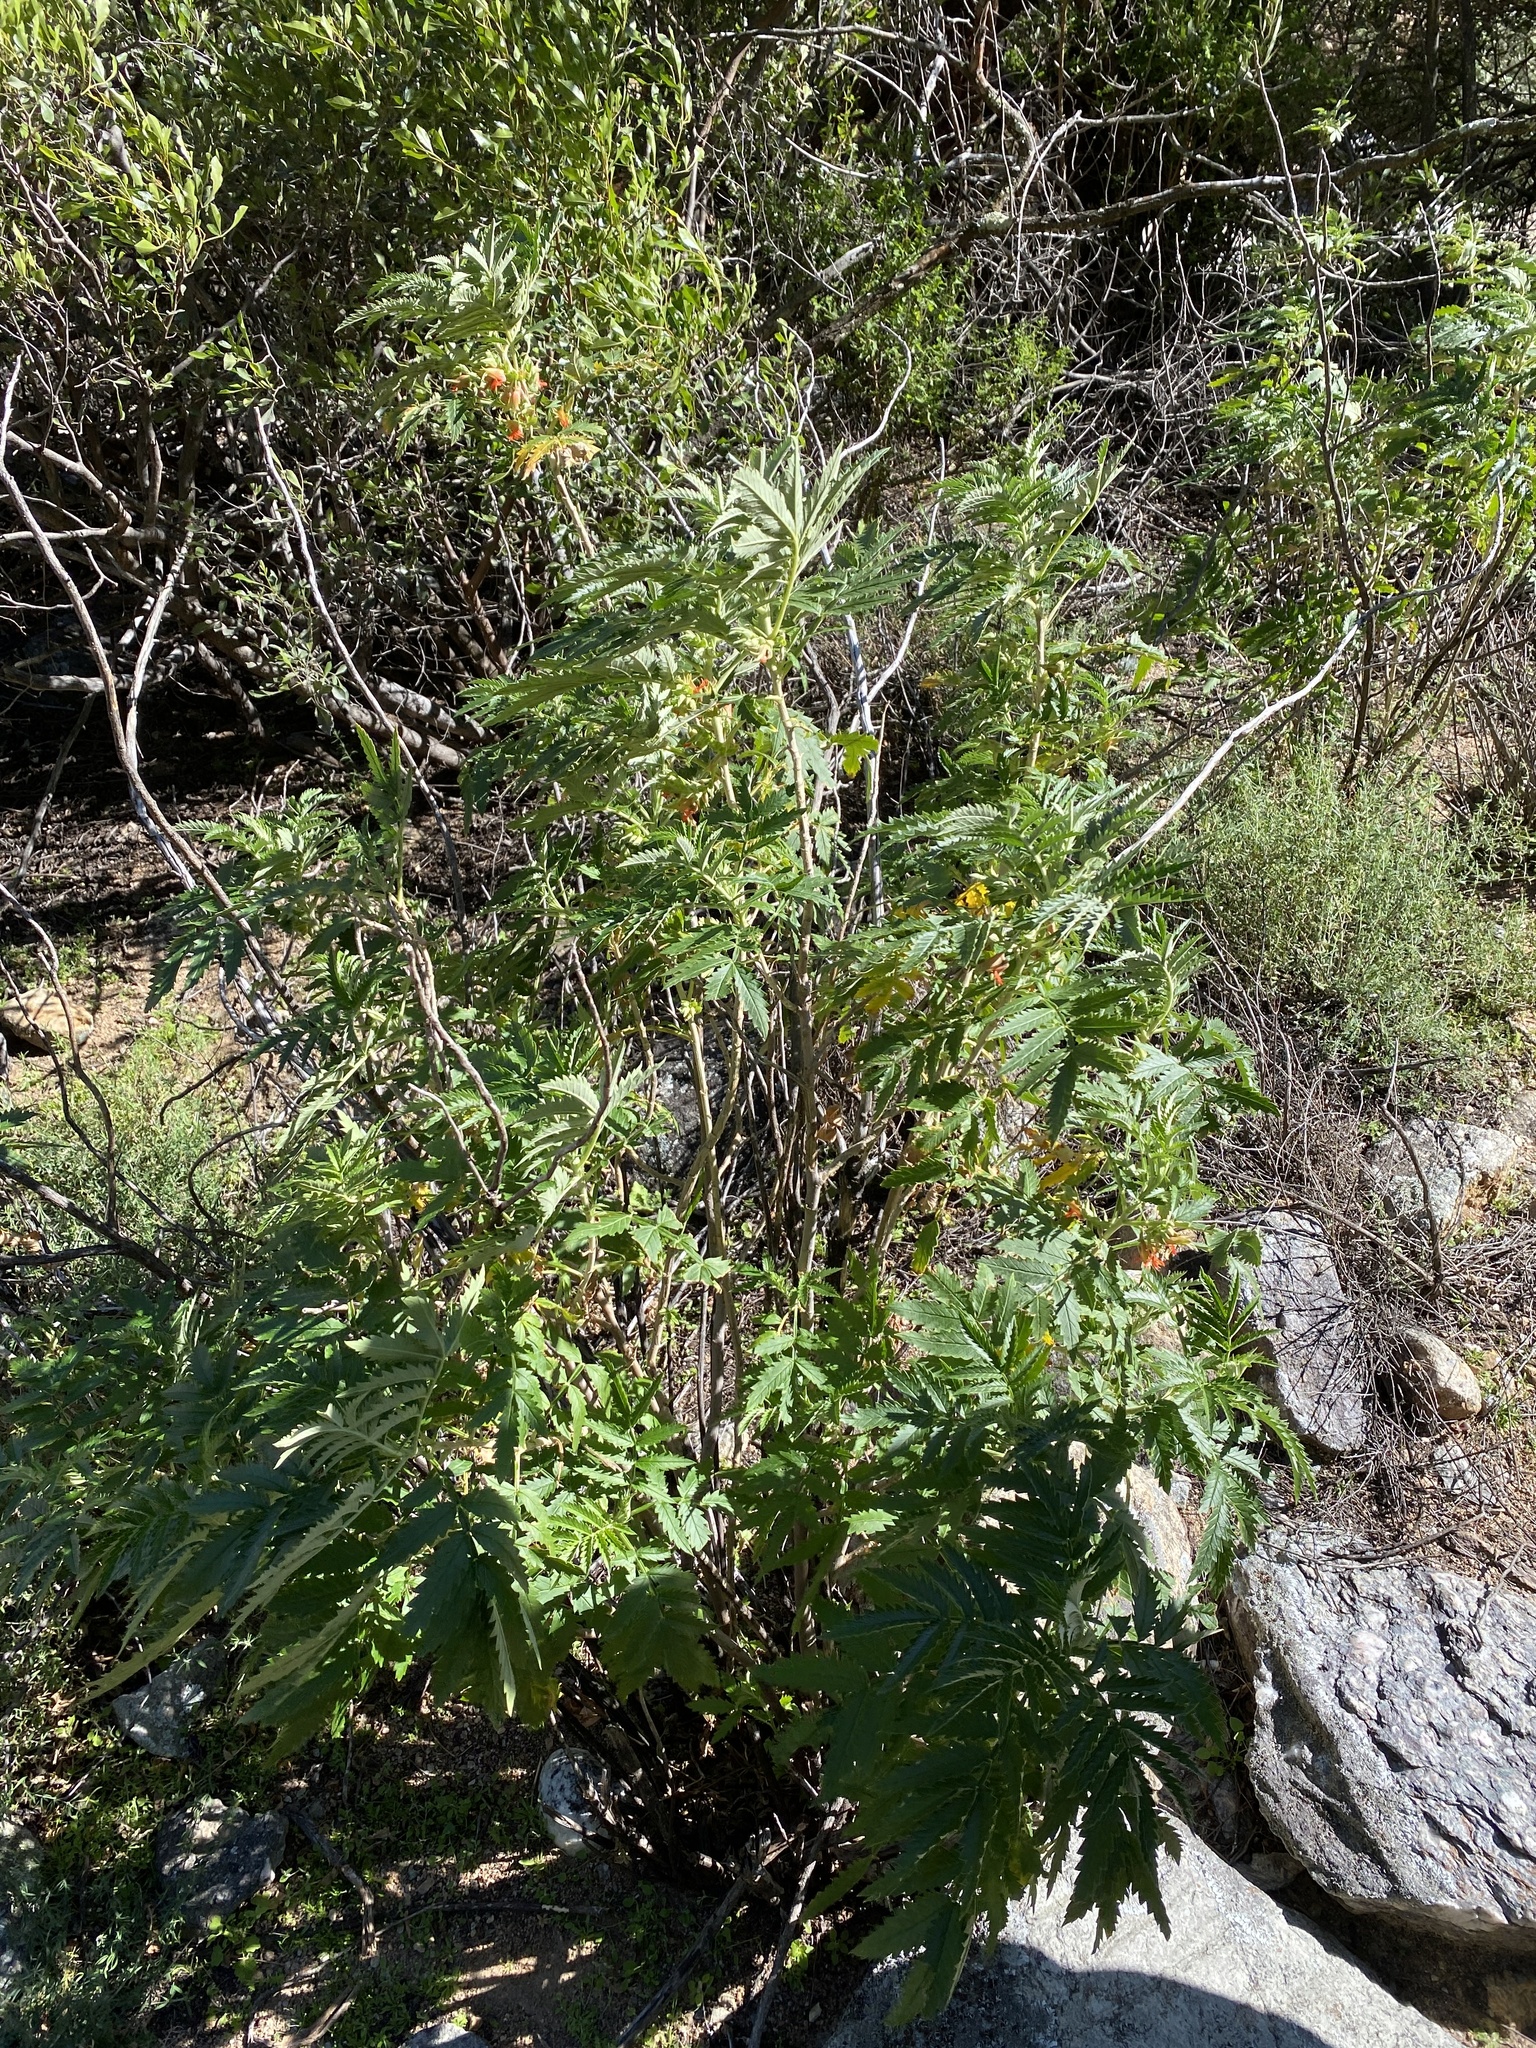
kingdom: Plantae
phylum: Tracheophyta
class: Magnoliopsida
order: Geraniales
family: Melianthaceae
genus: Melianthus
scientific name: Melianthus comosus
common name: Touch-me-not
